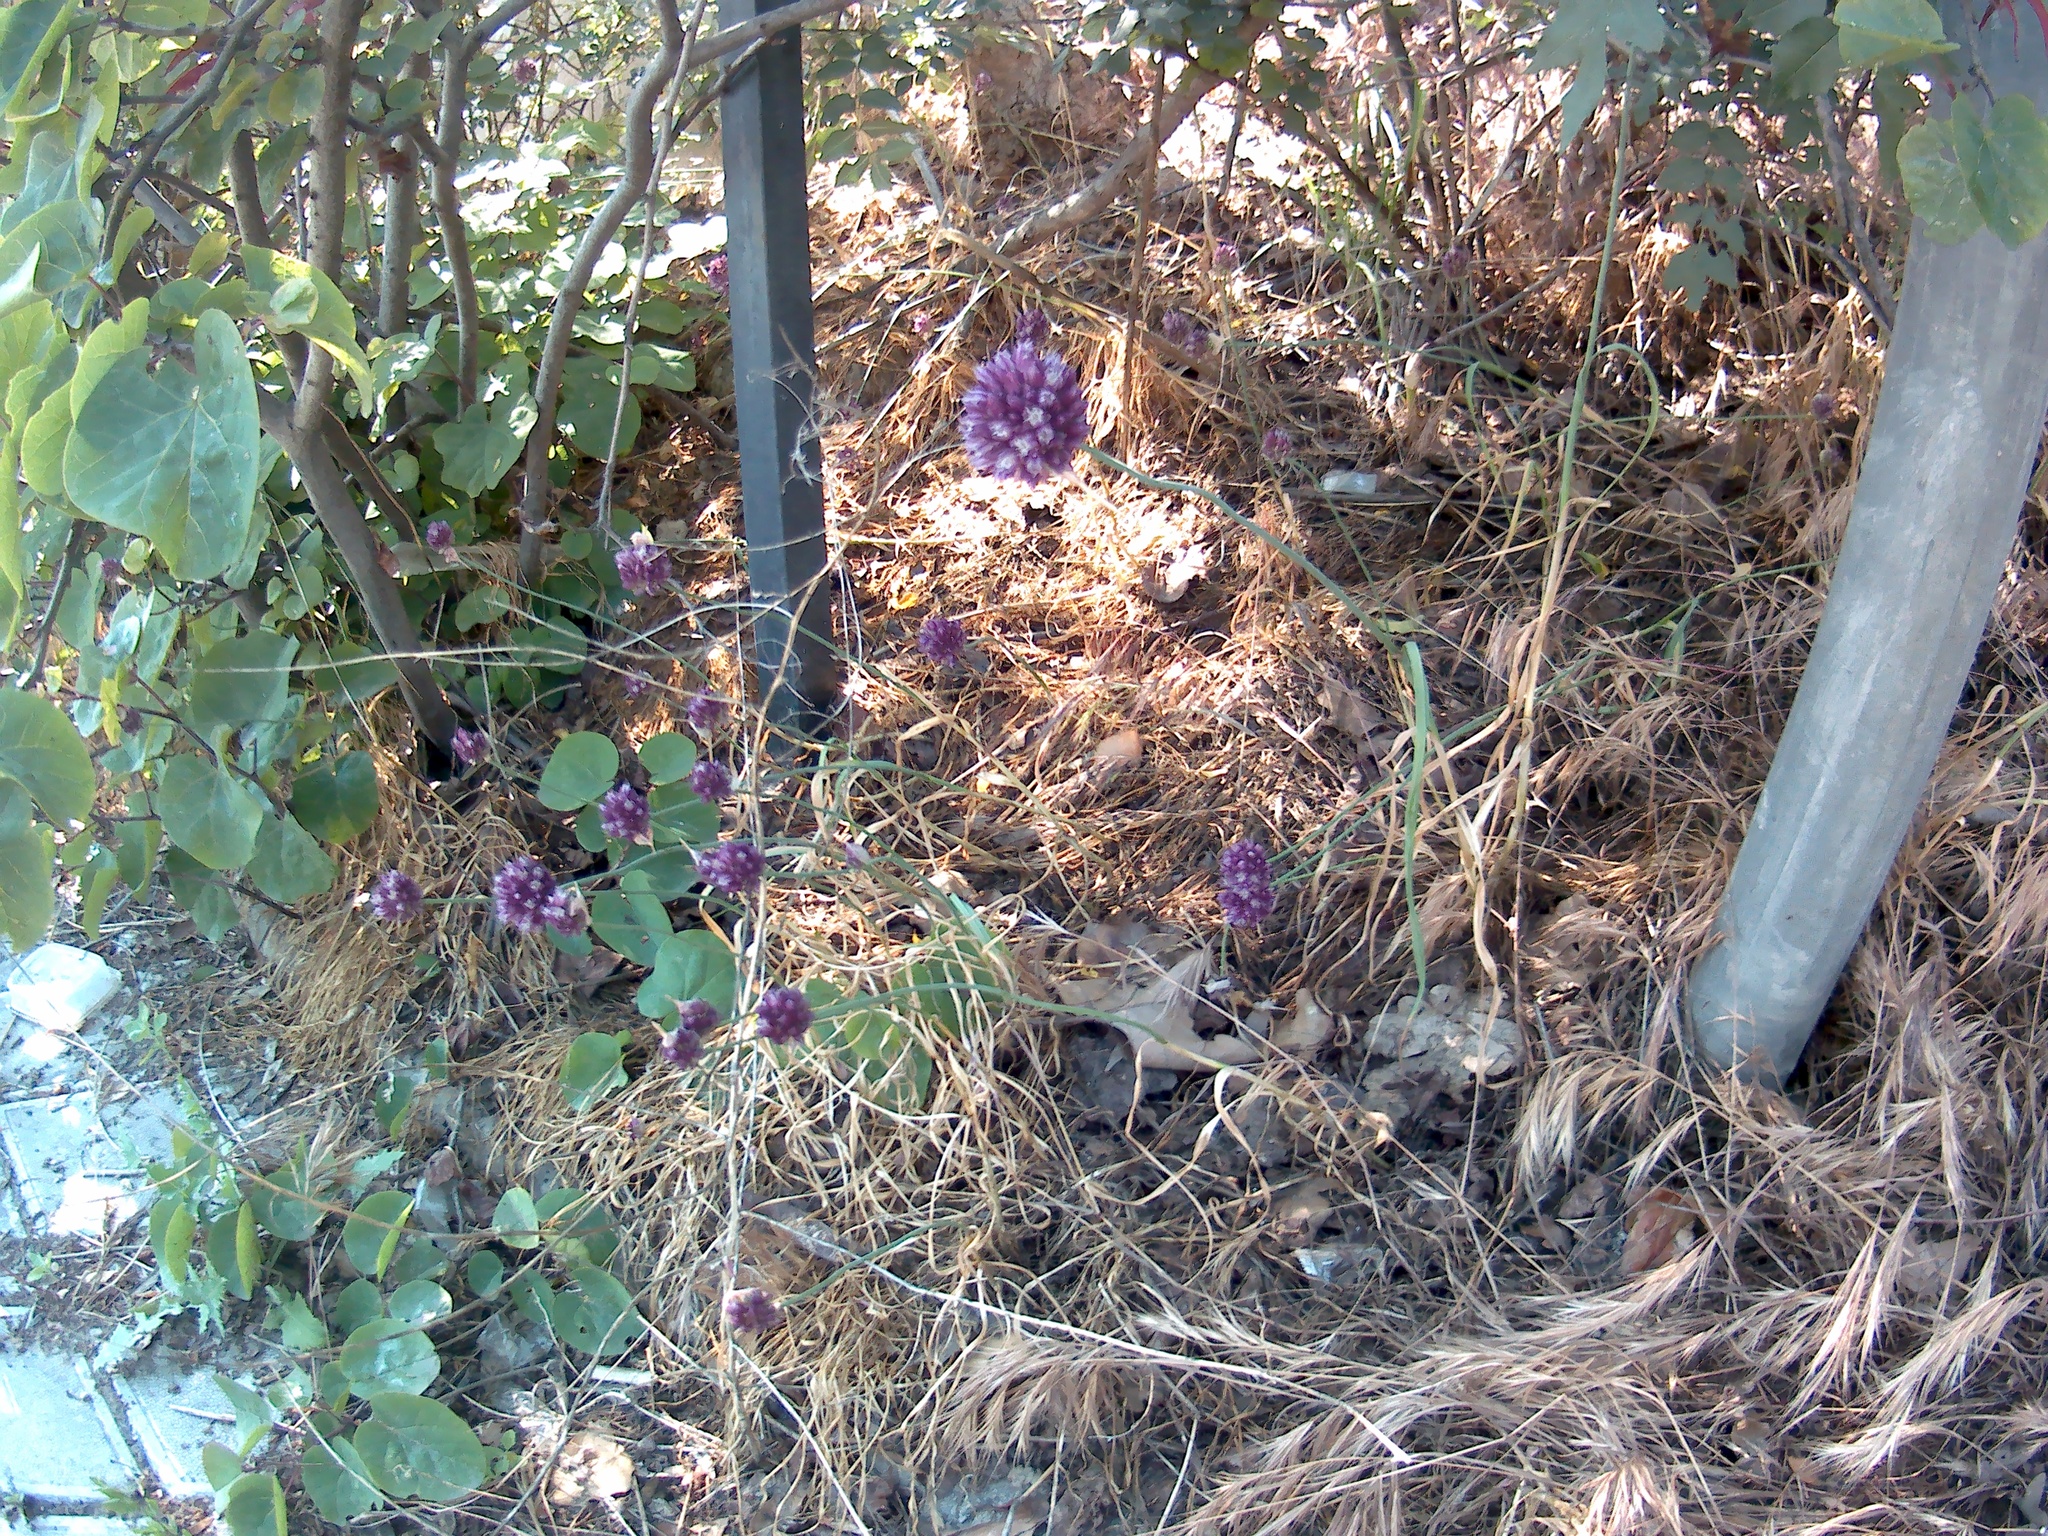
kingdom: Plantae
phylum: Tracheophyta
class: Liliopsida
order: Asparagales
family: Amaryllidaceae
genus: Allium
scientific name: Allium rotundum
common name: Sand leek
